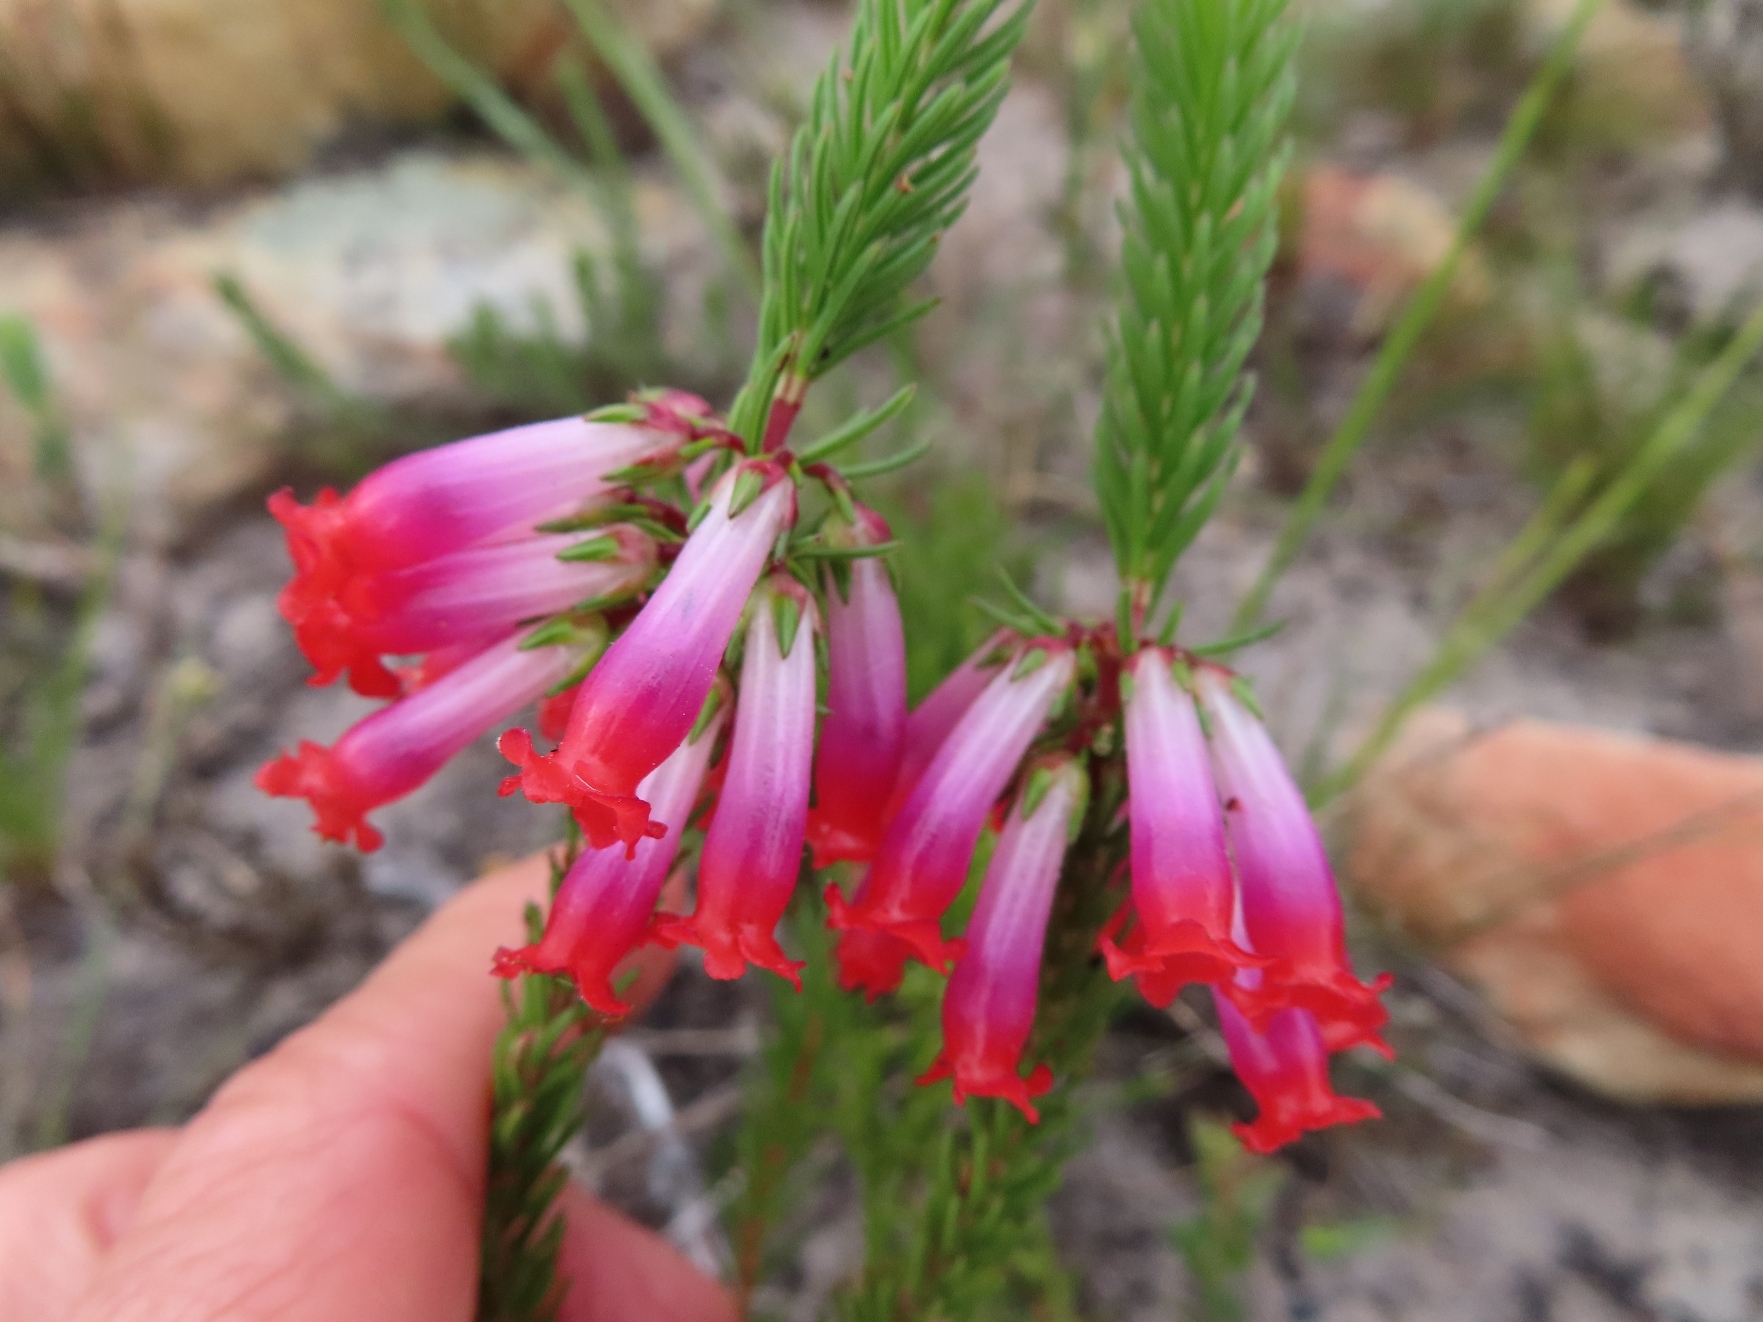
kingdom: Plantae
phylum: Tracheophyta
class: Magnoliopsida
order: Ericales
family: Ericaceae
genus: Erica
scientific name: Erica regia
